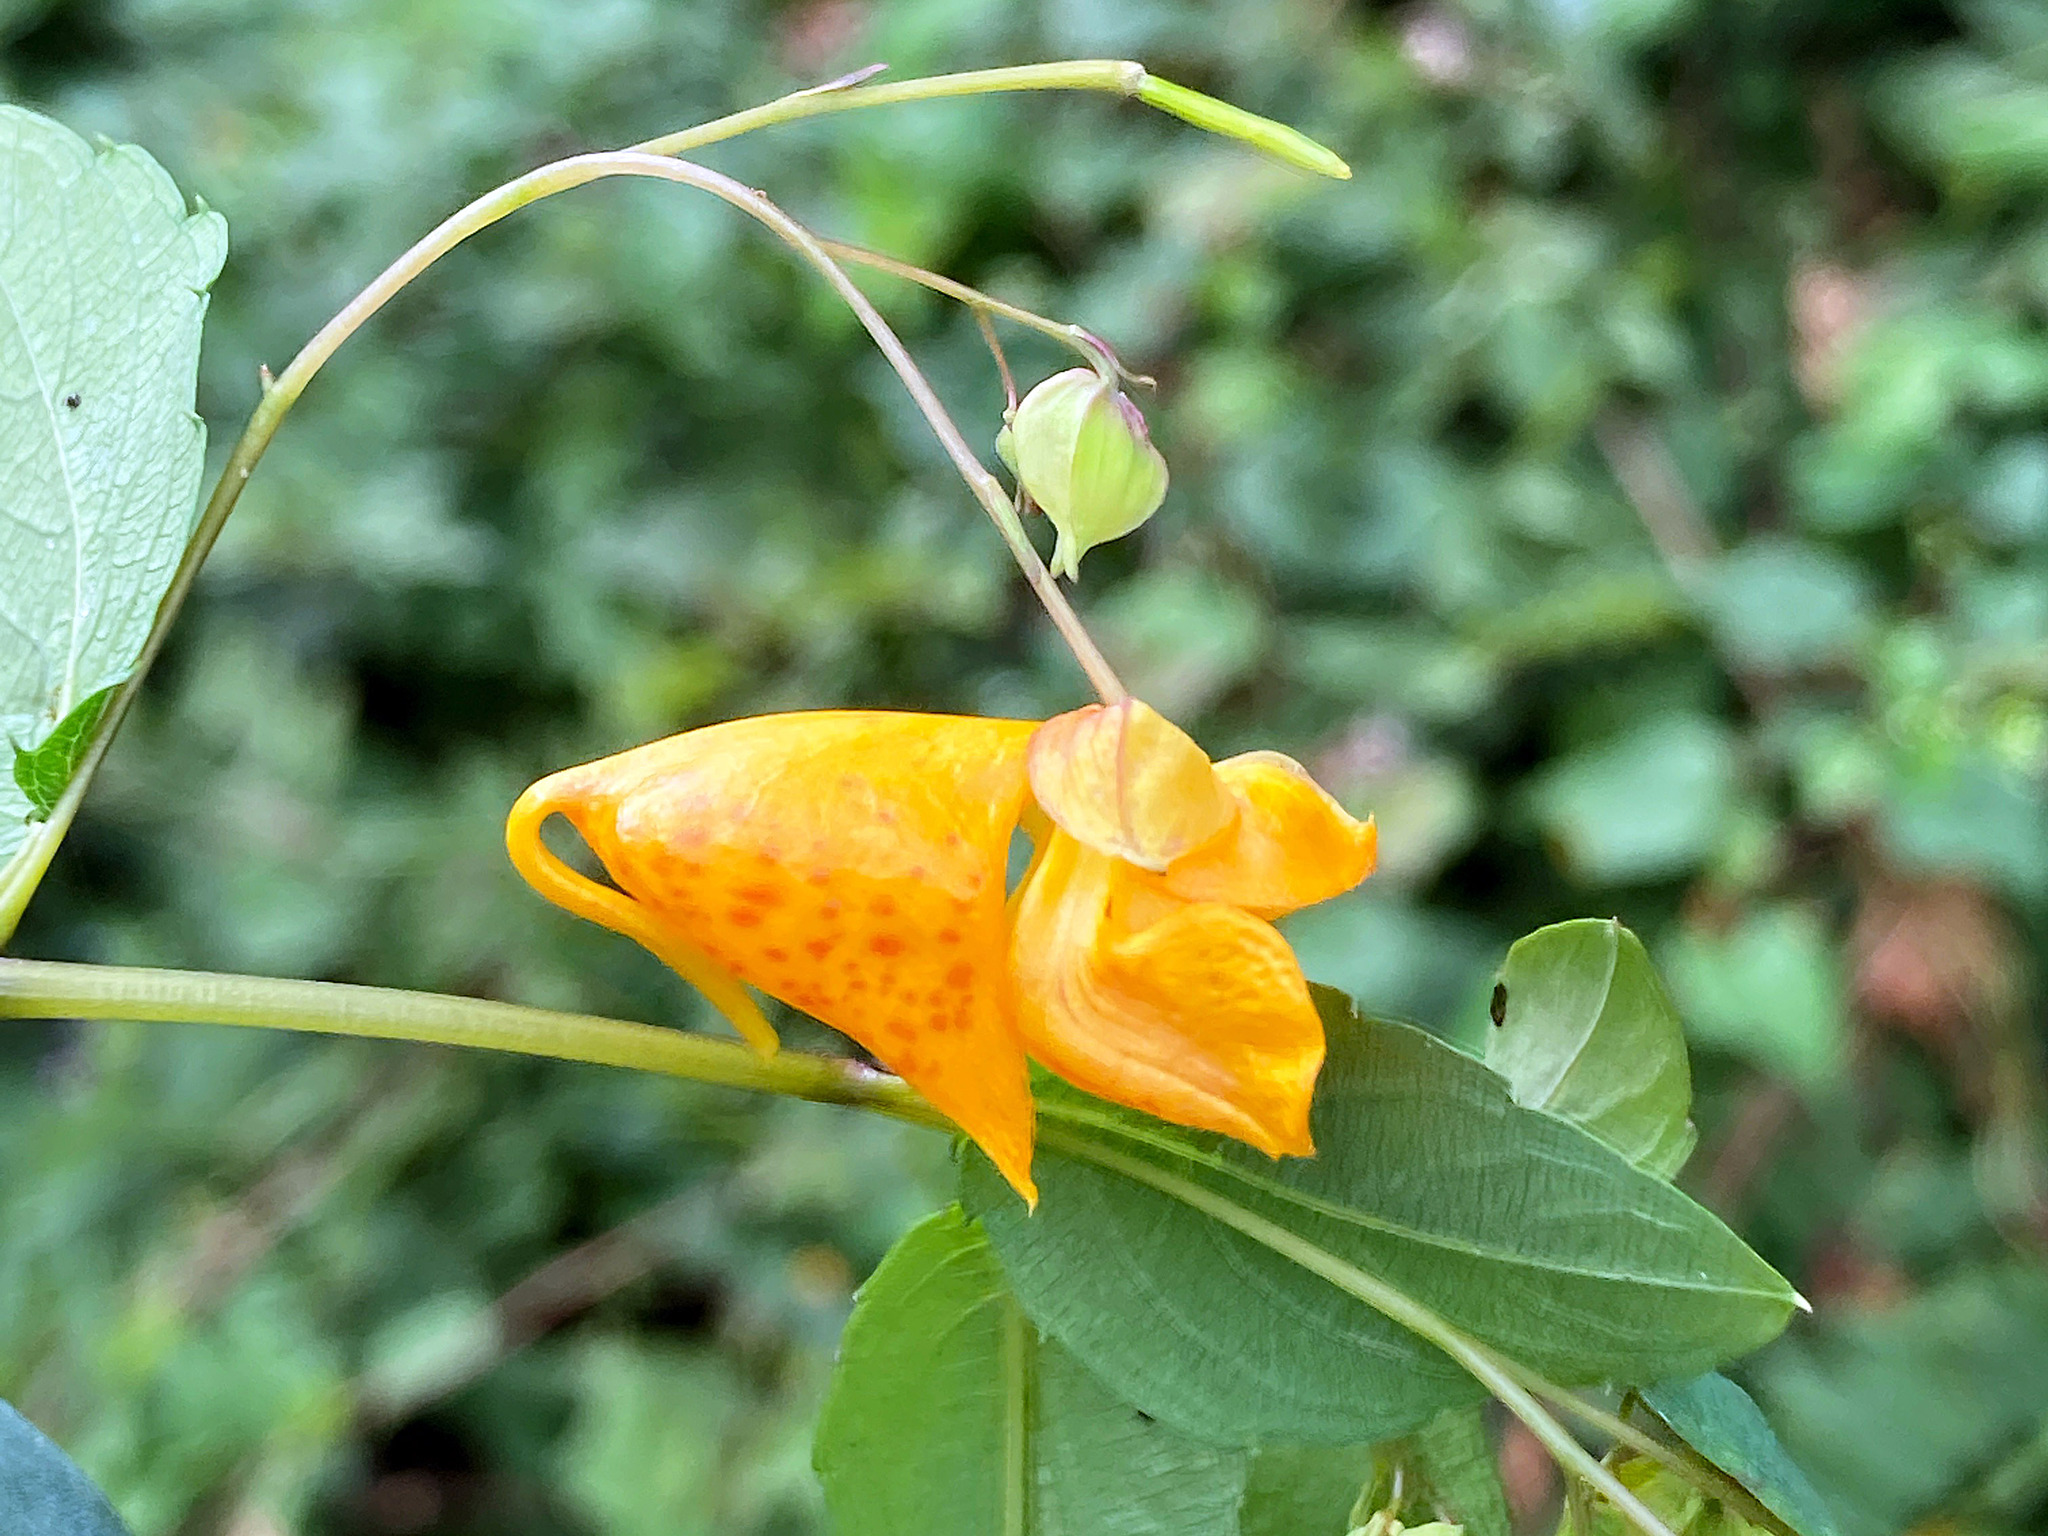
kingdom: Plantae
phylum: Tracheophyta
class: Magnoliopsida
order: Ericales
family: Balsaminaceae
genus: Impatiens
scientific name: Impatiens capensis
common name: Orange balsam
